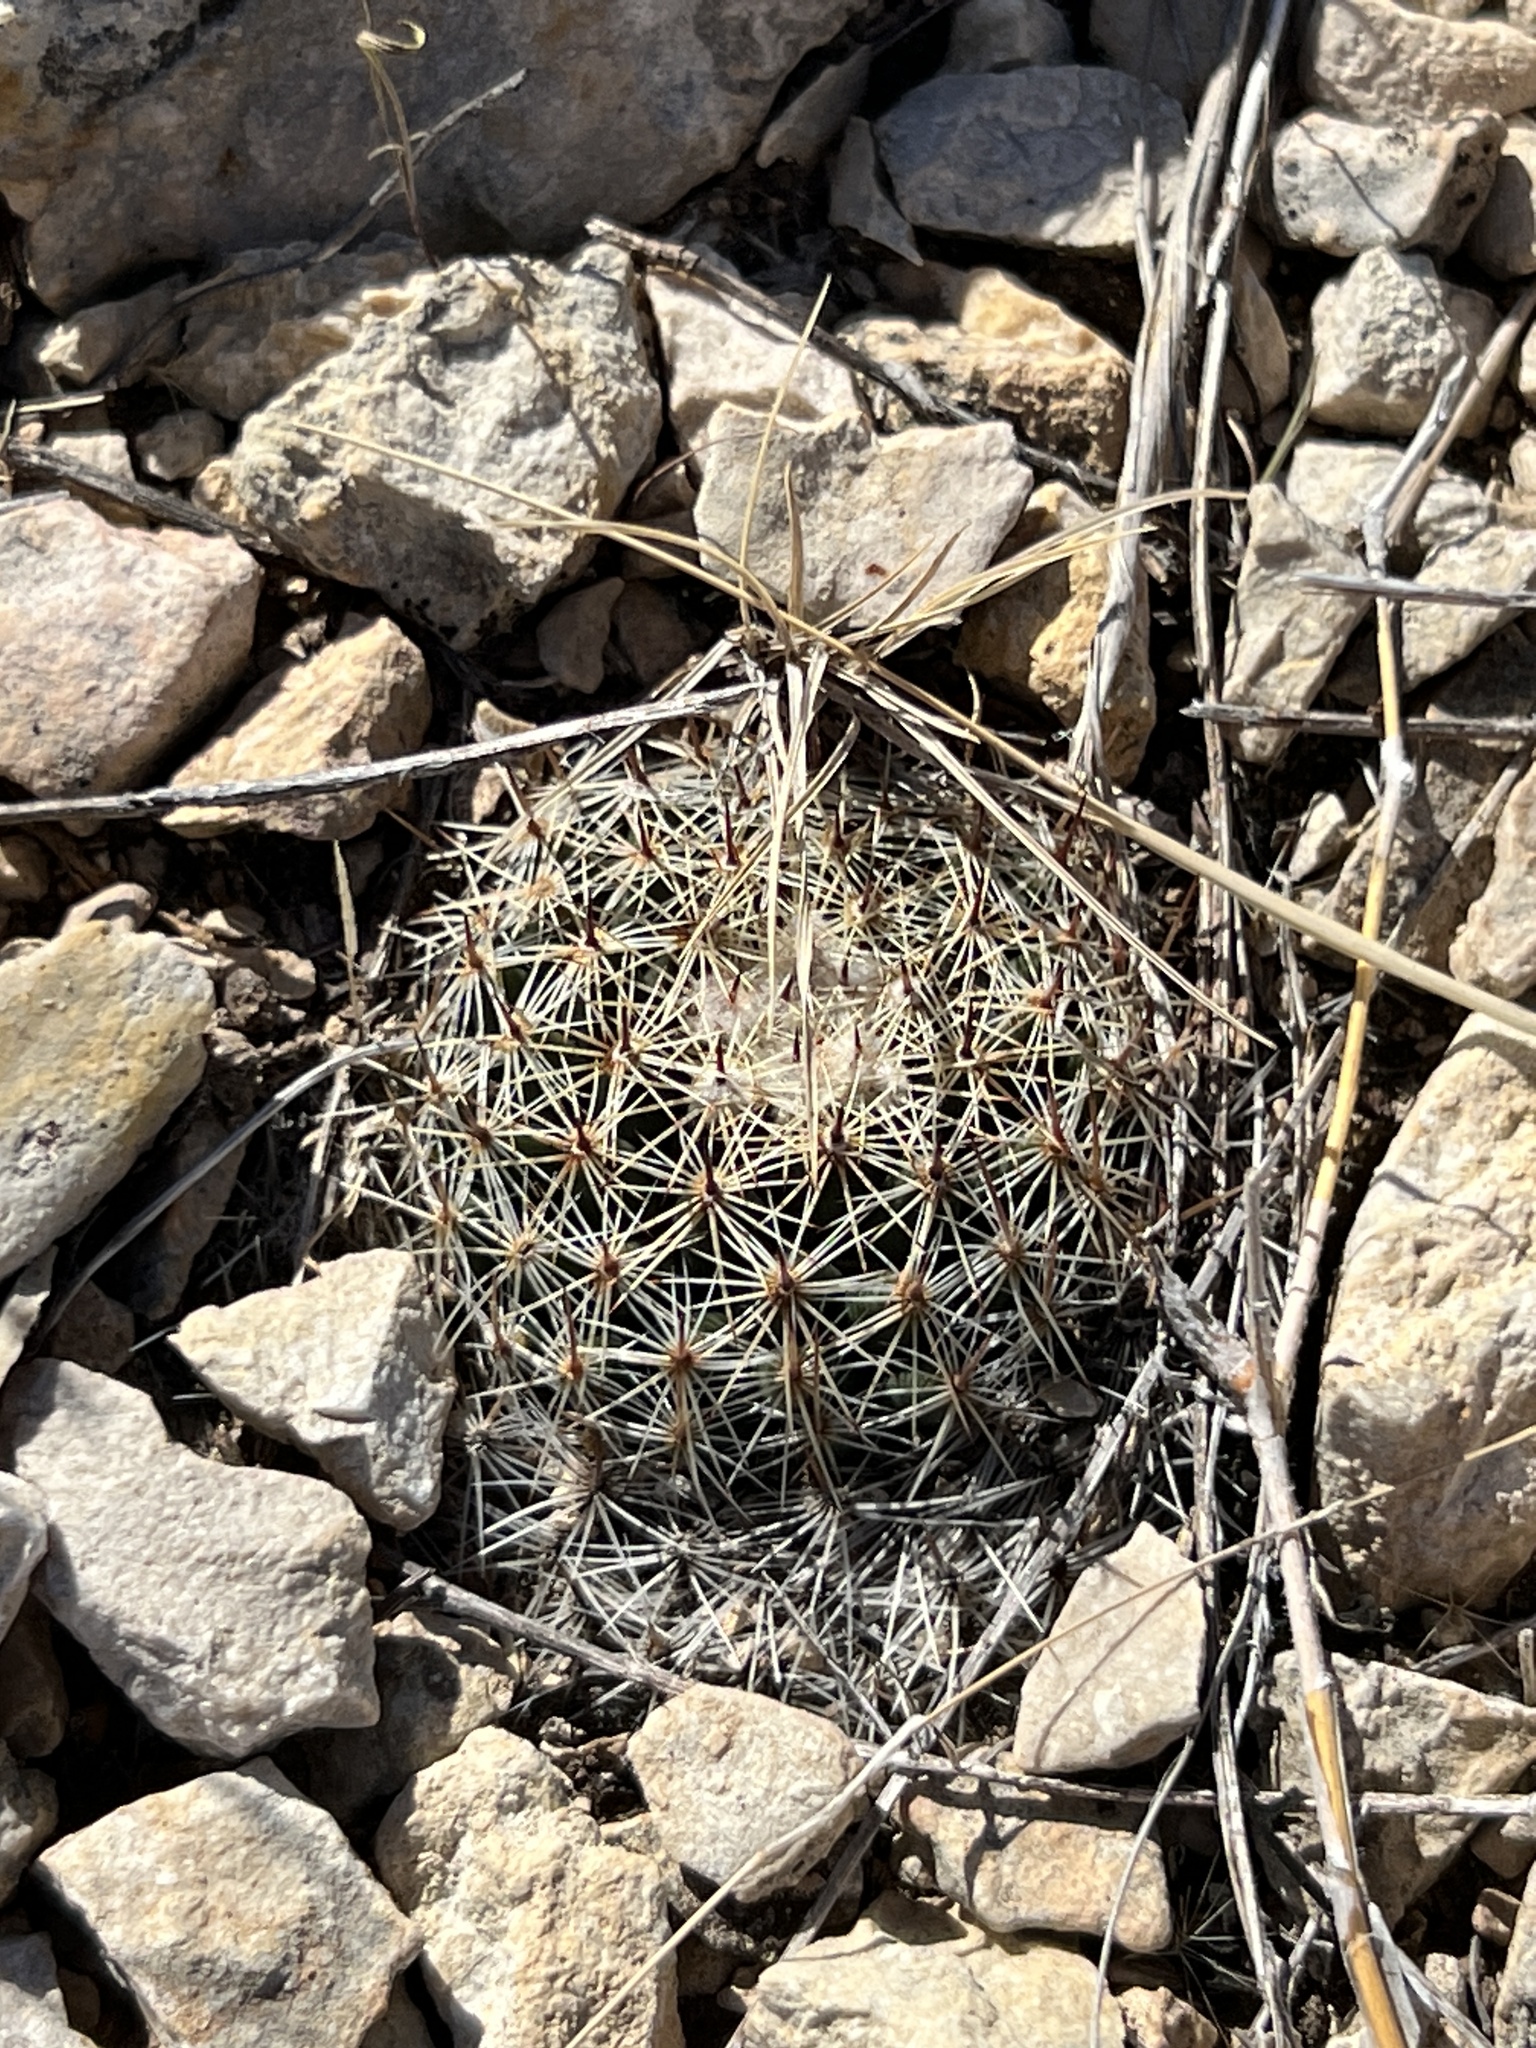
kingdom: Plantae
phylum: Tracheophyta
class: Magnoliopsida
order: Caryophyllales
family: Cactaceae
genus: Mammillaria
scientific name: Mammillaria heyderi
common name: Little nipple cactus
